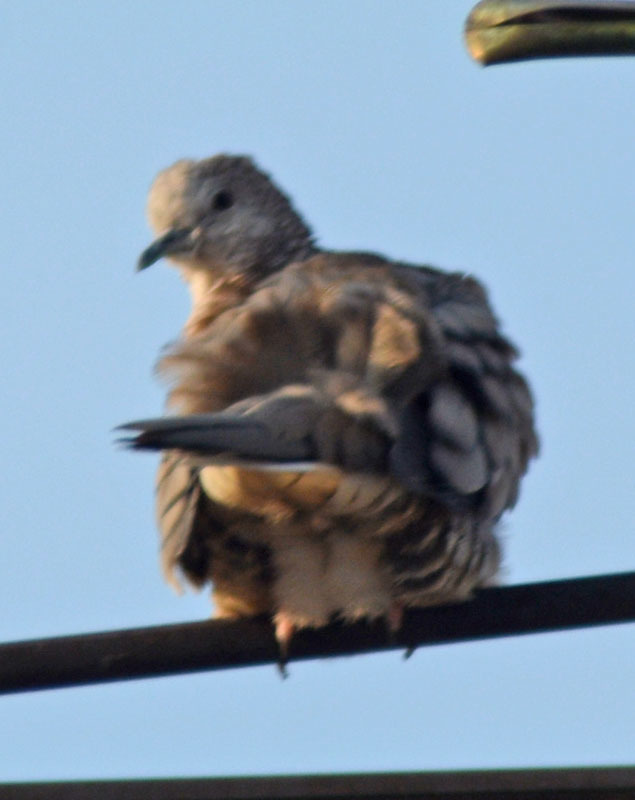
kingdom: Animalia
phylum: Chordata
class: Aves
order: Columbiformes
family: Columbidae
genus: Columbina
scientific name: Columbina inca
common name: Inca dove
